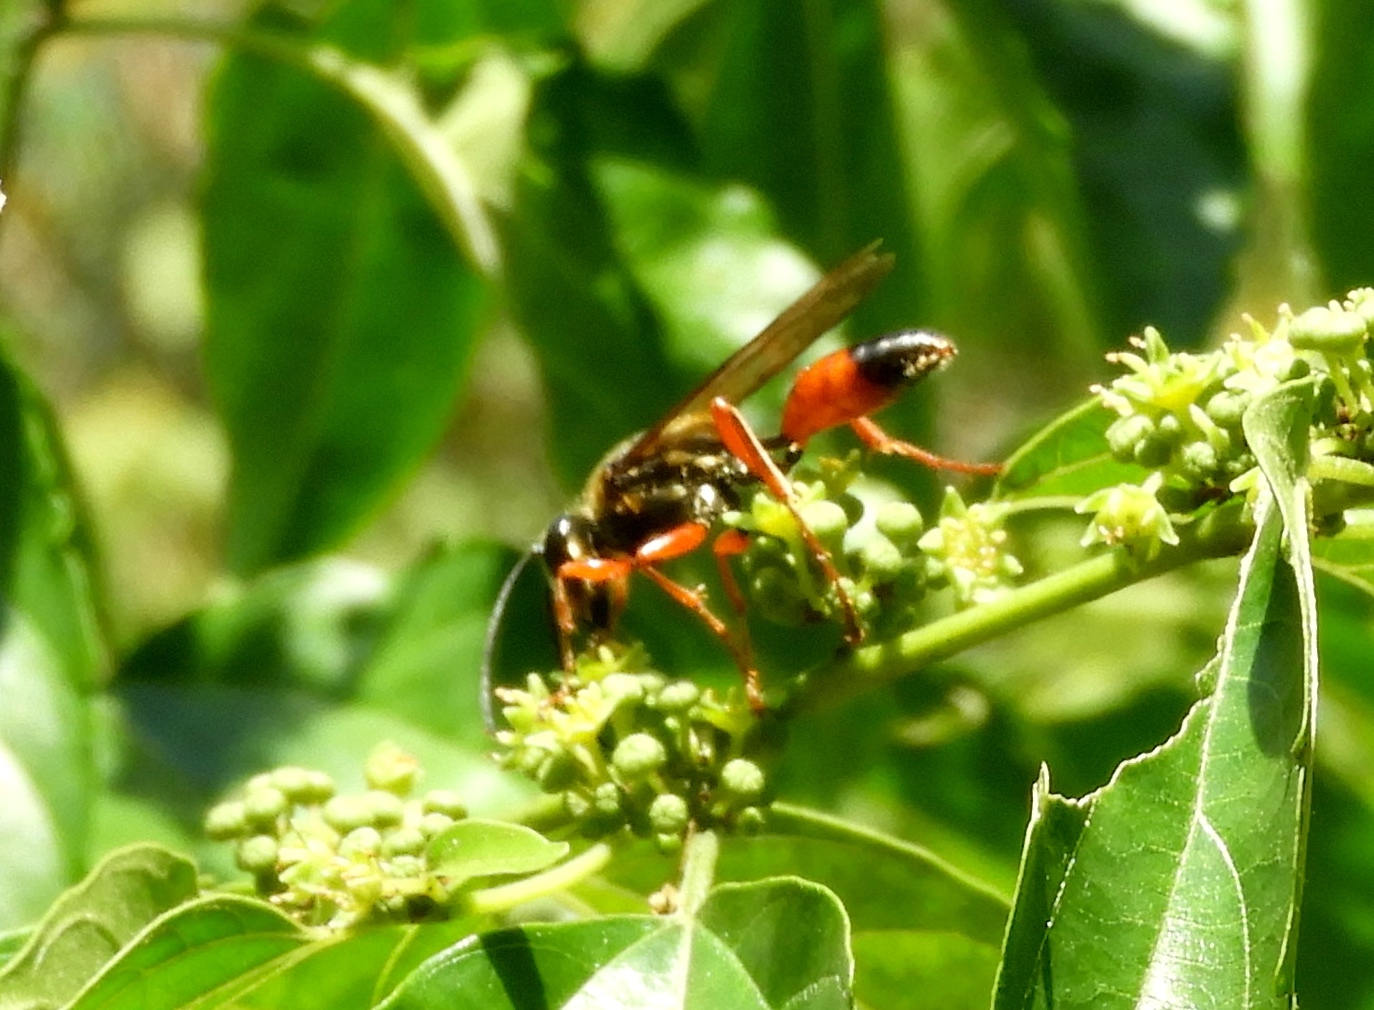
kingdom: Animalia
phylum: Arthropoda
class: Insecta
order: Hymenoptera
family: Sphecidae
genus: Sphex
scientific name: Sphex ichneumoneus
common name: Great golden digger wasp
